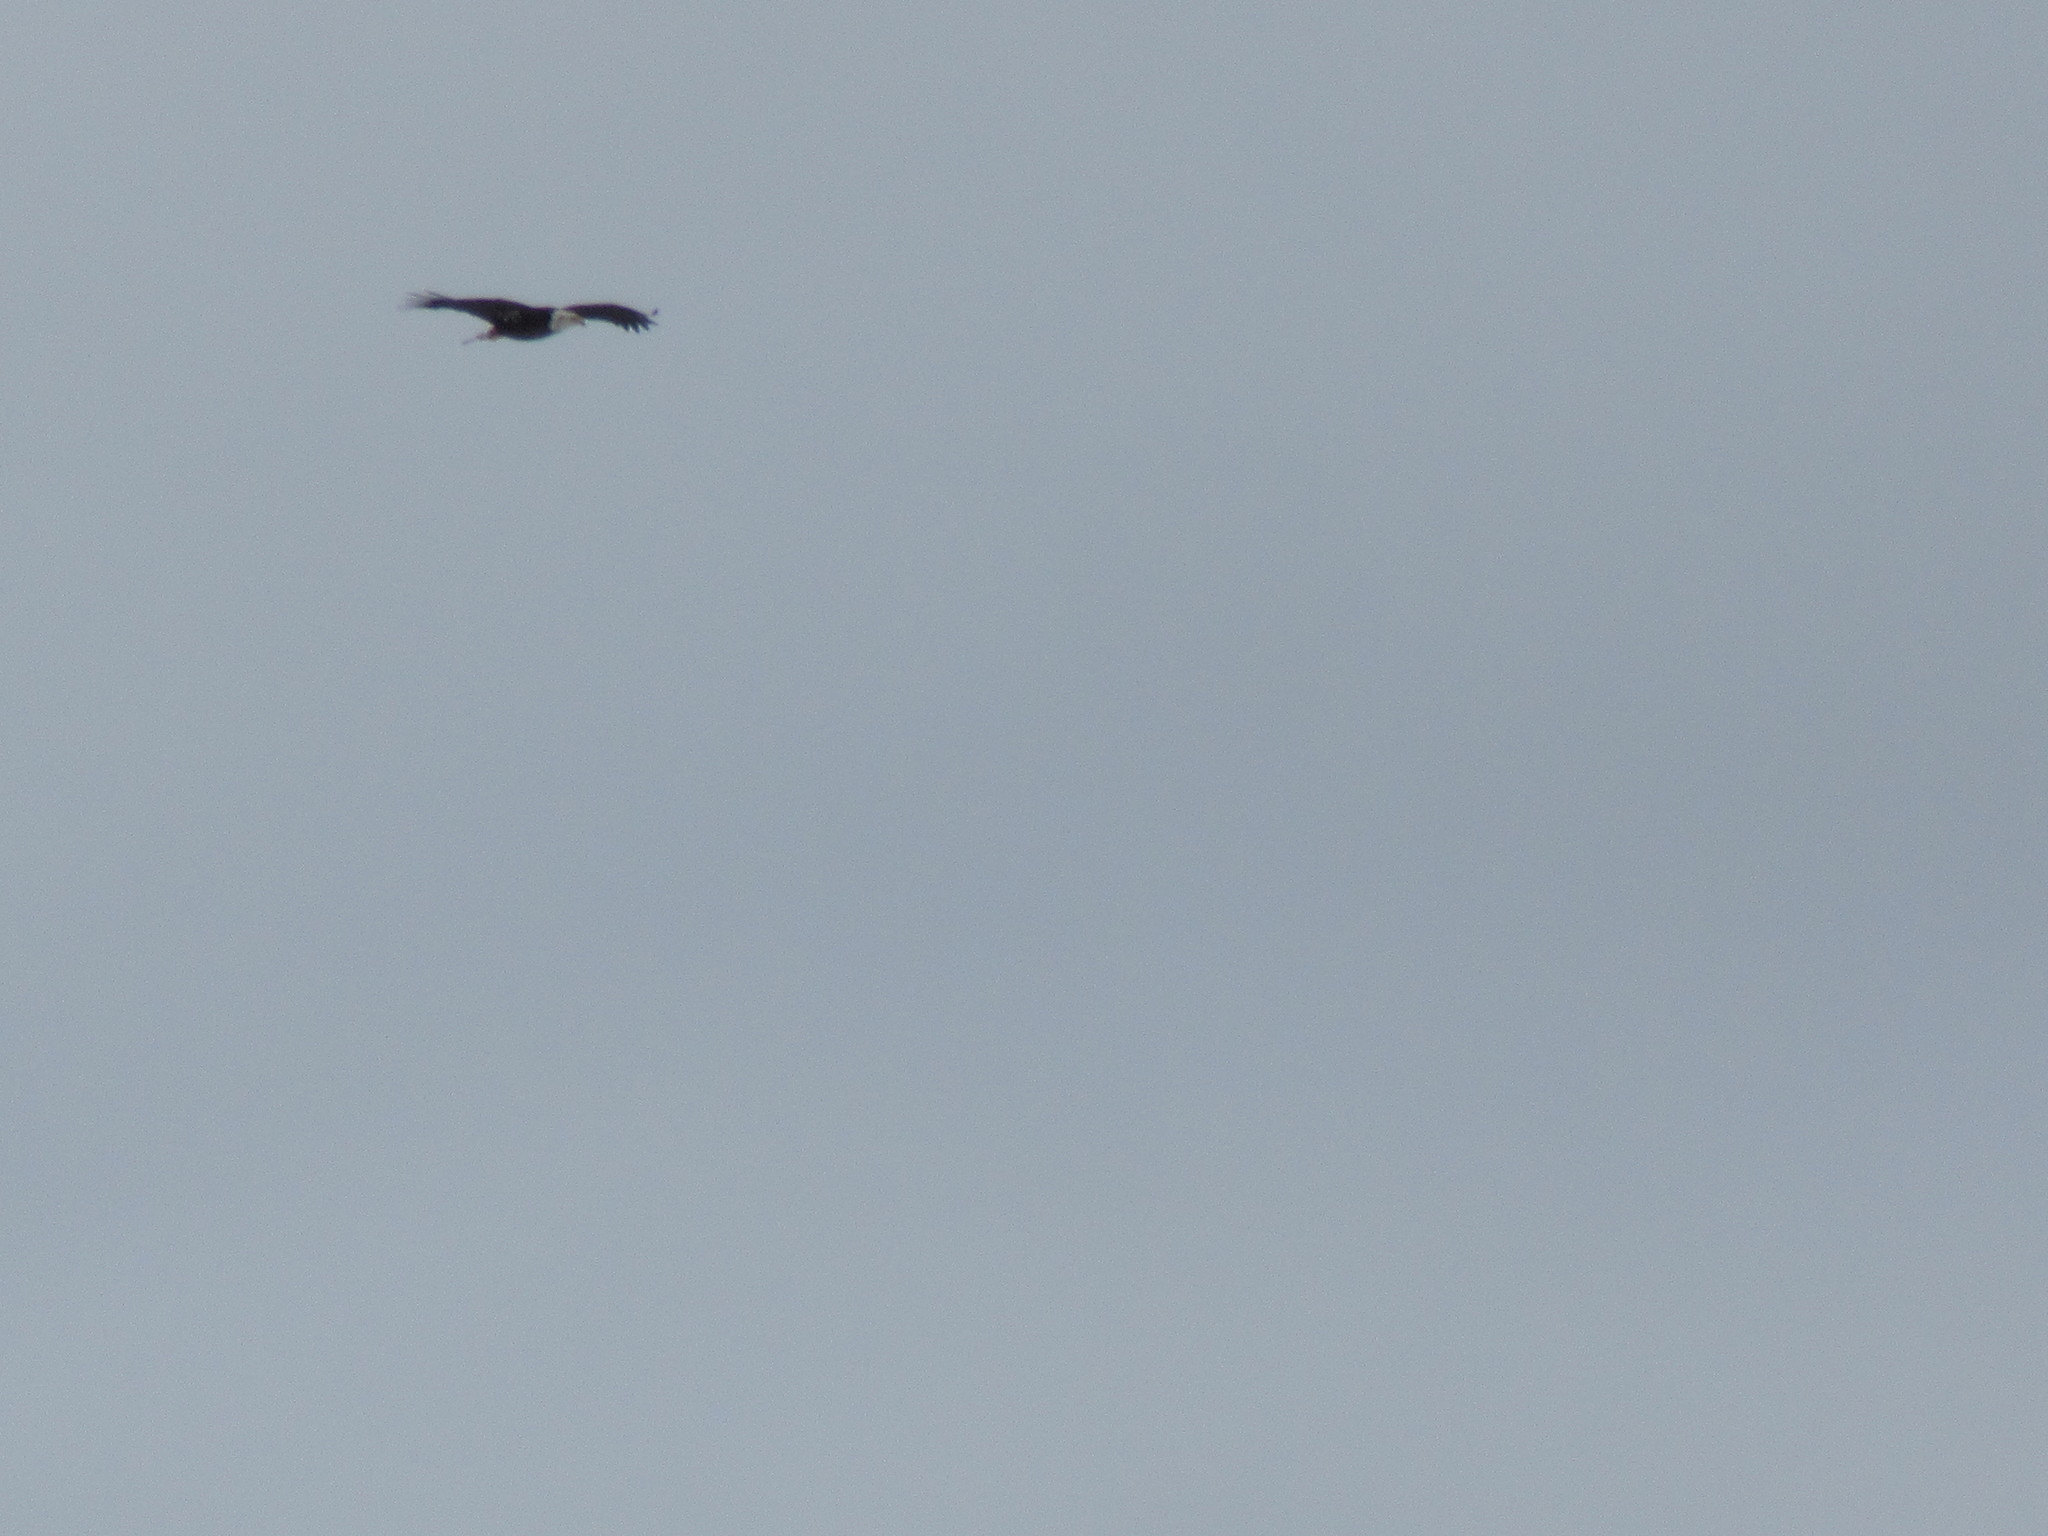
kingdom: Animalia
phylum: Chordata
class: Aves
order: Accipitriformes
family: Accipitridae
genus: Haliaeetus
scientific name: Haliaeetus leucocephalus
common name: Bald eagle
